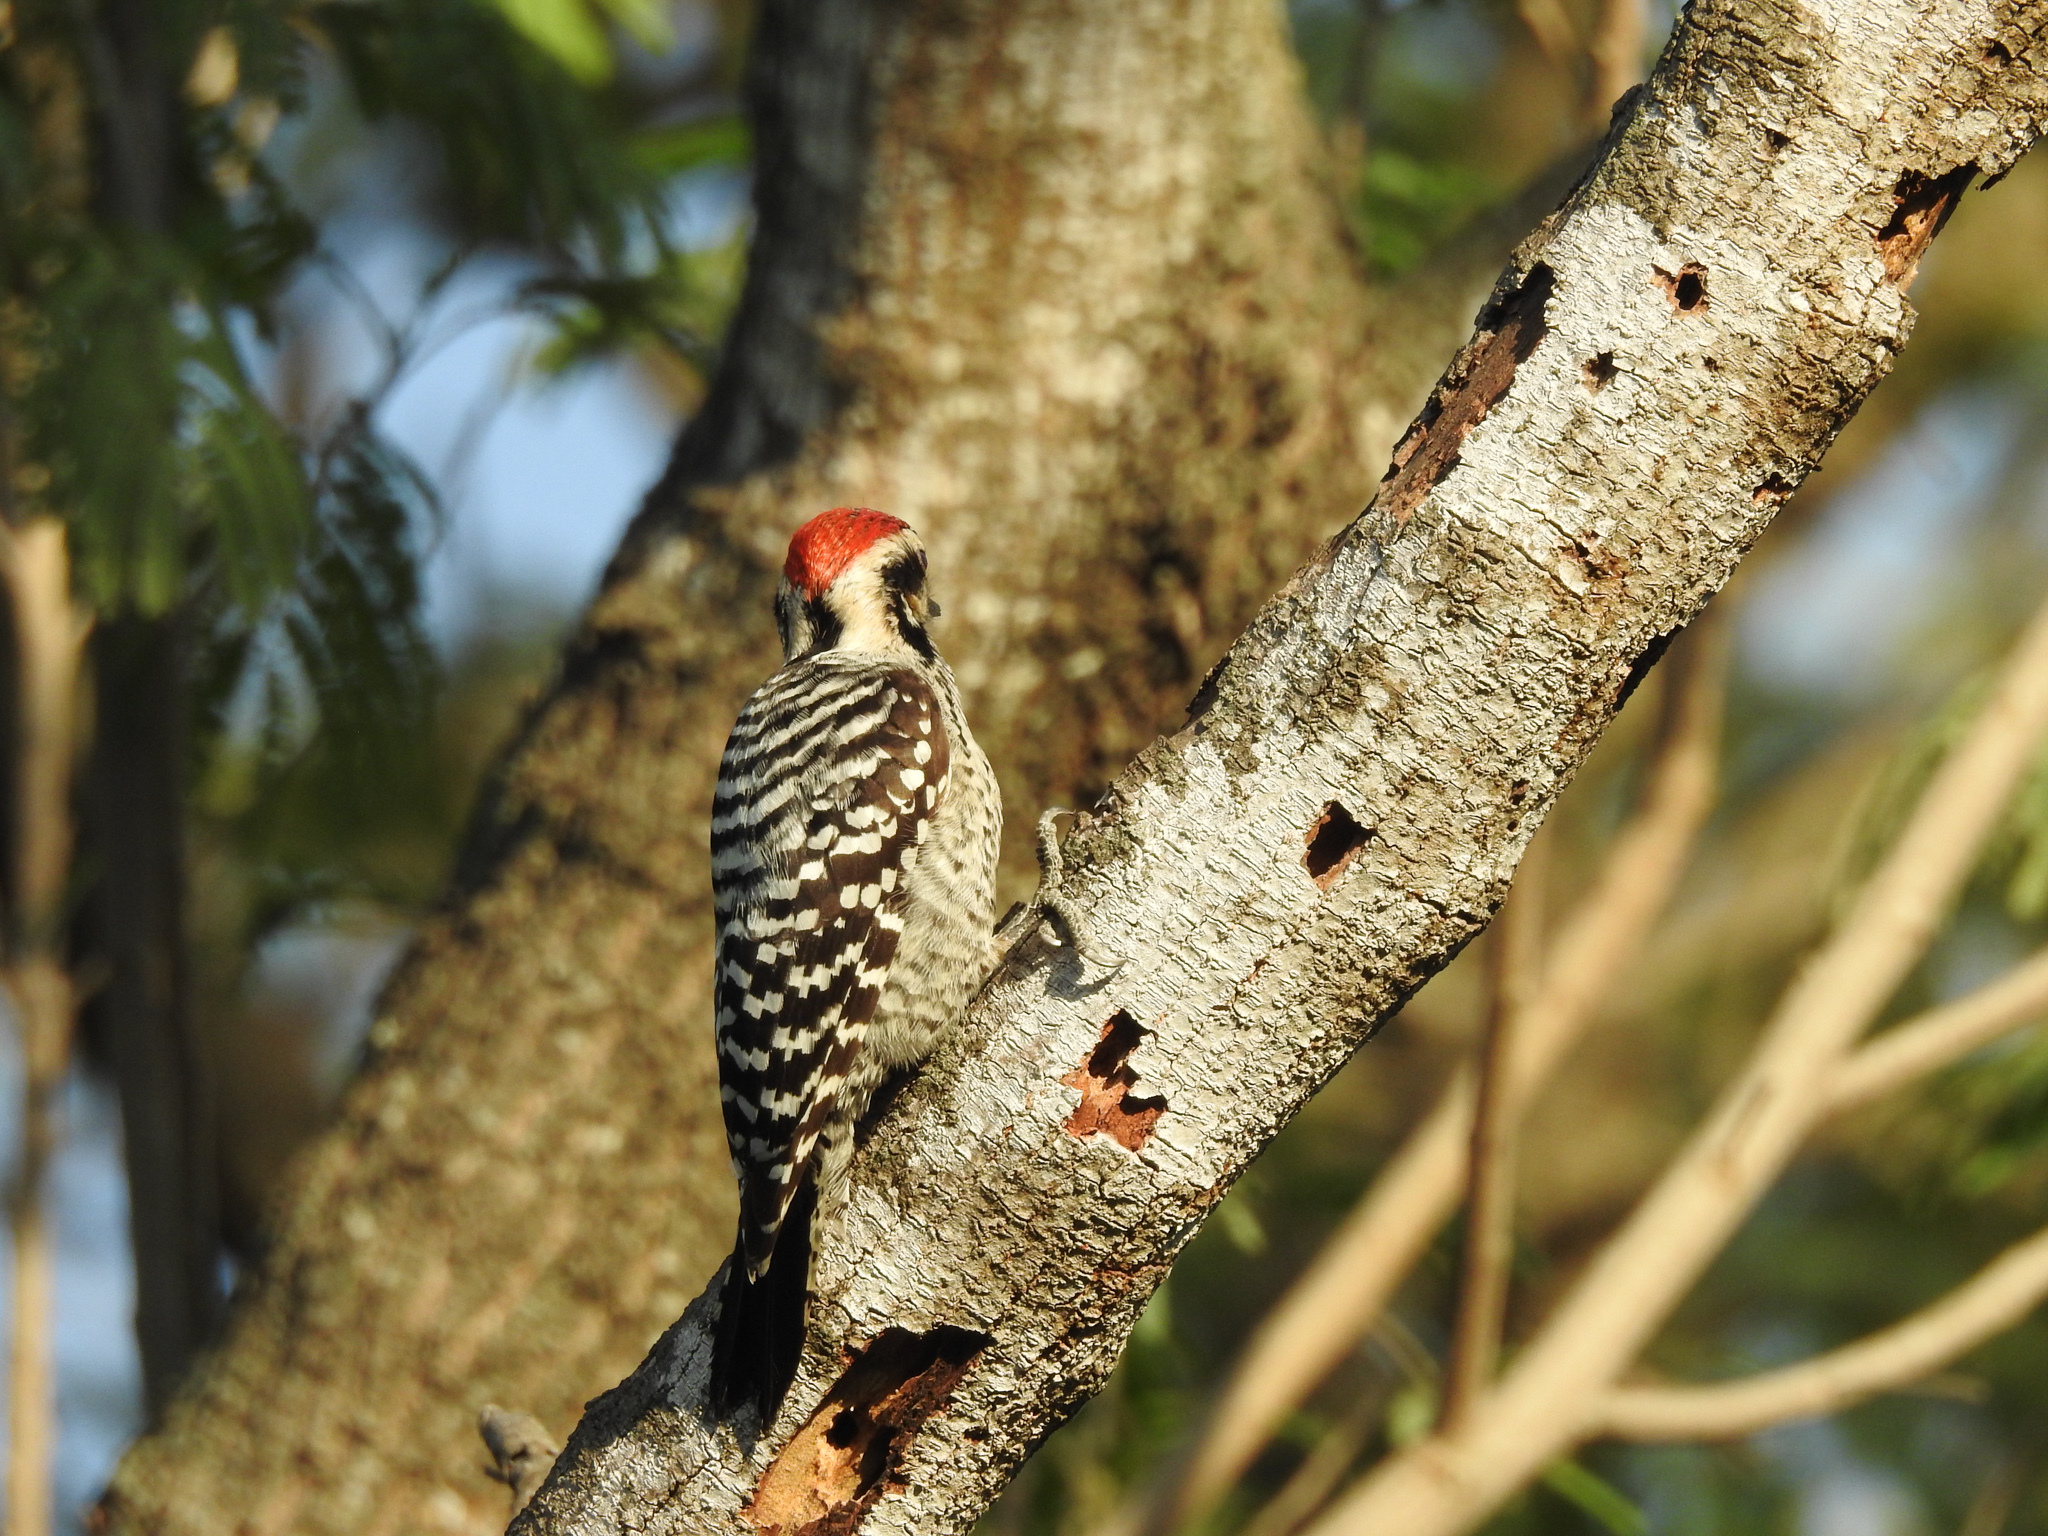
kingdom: Animalia
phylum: Chordata
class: Aves
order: Piciformes
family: Picidae
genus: Dryobates
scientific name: Dryobates scalaris
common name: Ladder-backed woodpecker
